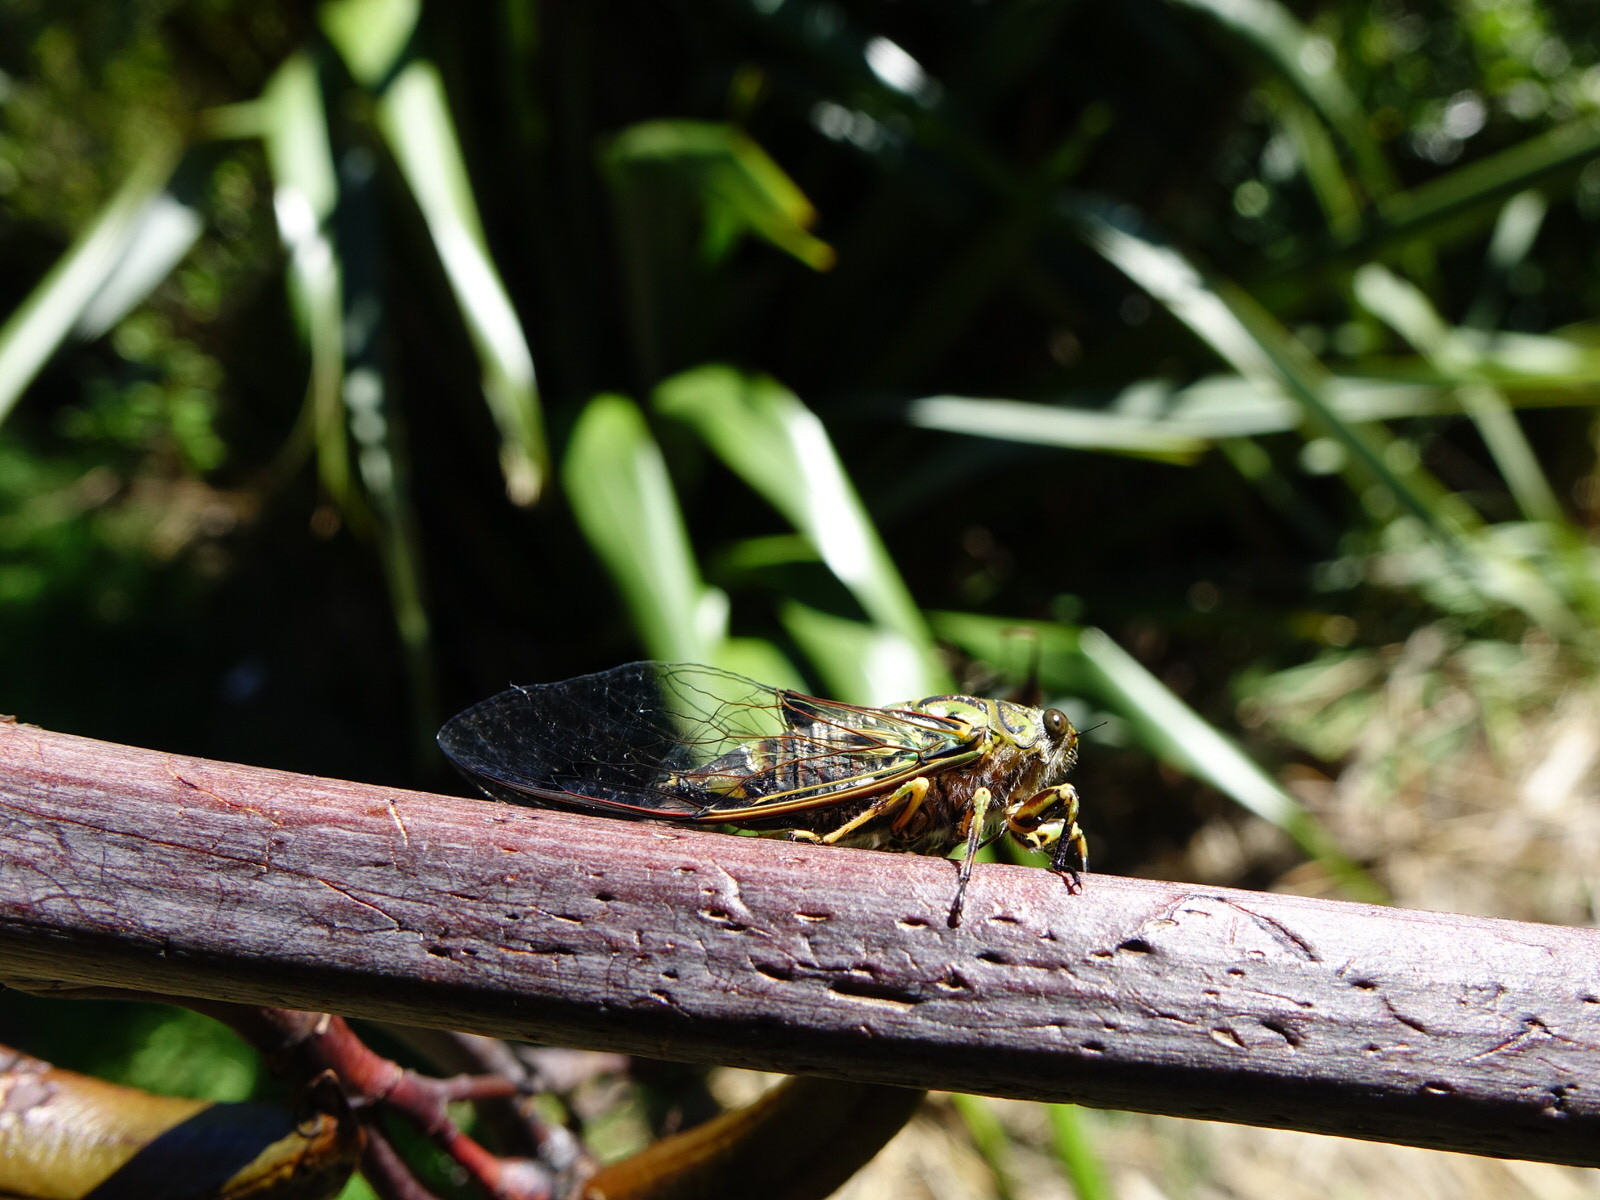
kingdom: Animalia
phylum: Arthropoda
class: Insecta
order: Hemiptera
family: Cicadidae
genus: Amphipsalta
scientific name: Amphipsalta zelandica
